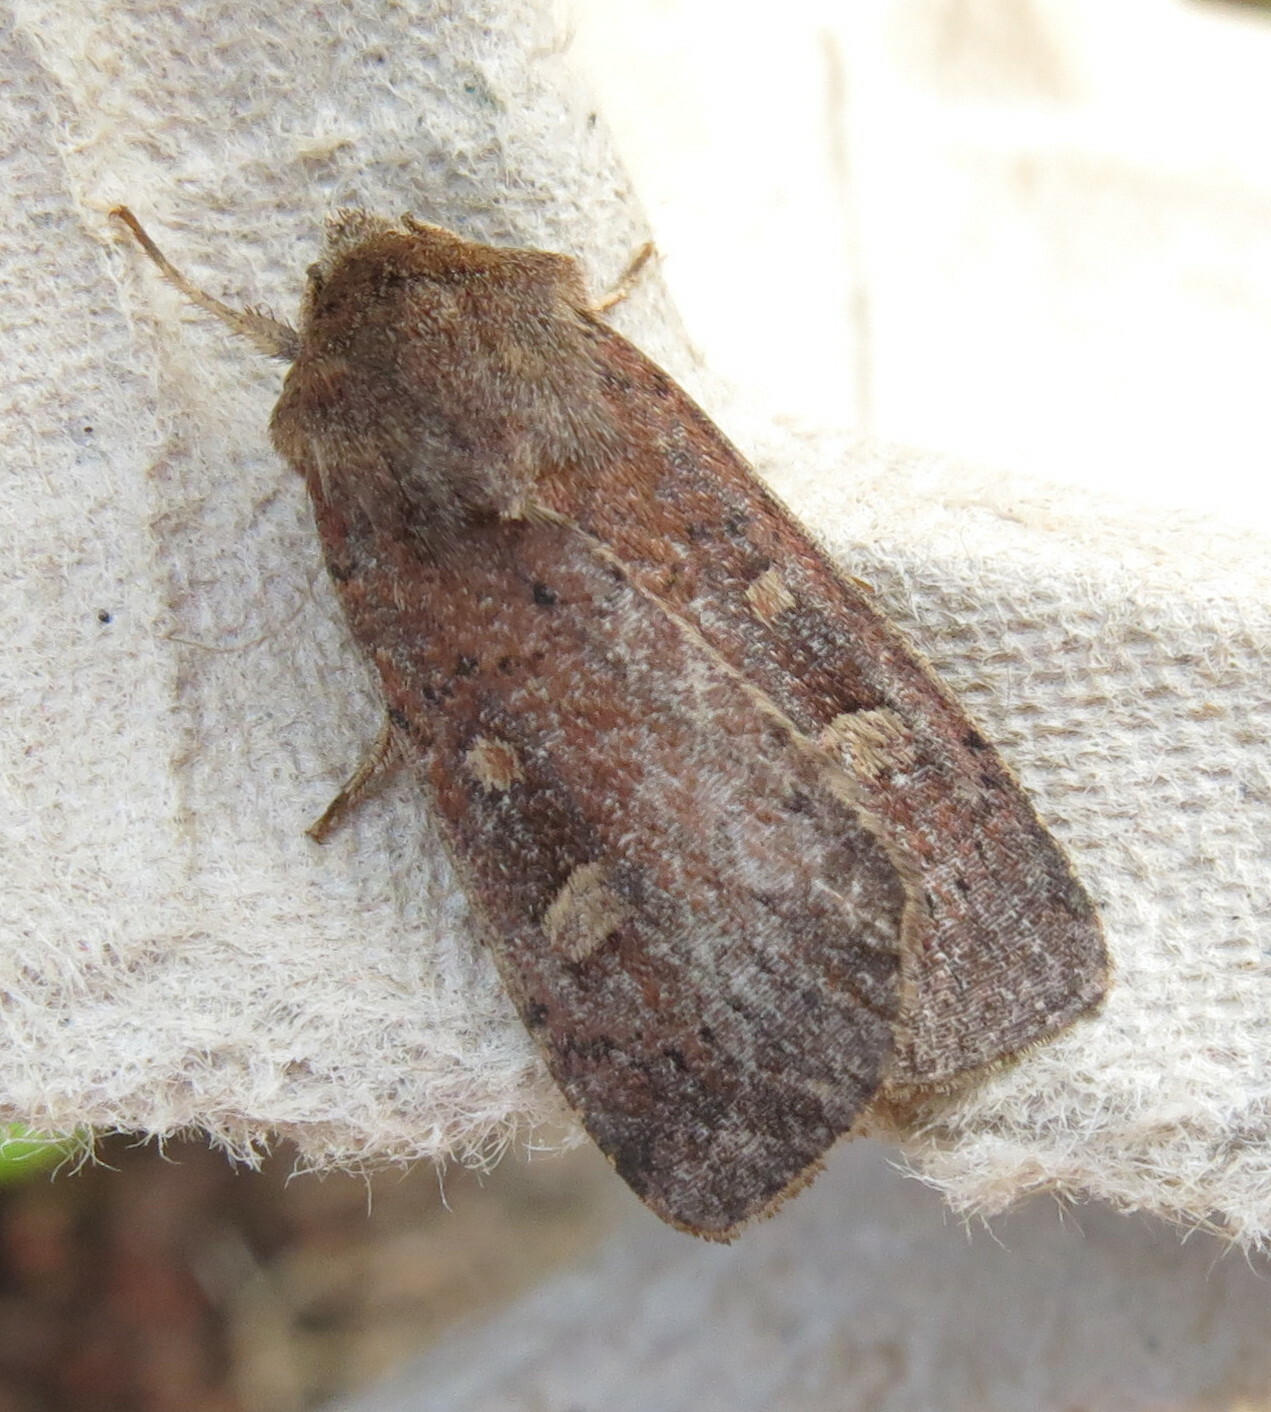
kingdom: Animalia
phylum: Arthropoda
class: Insecta
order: Lepidoptera
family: Noctuidae
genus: Xestia
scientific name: Xestia xanthographa
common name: Square-spot rustic
